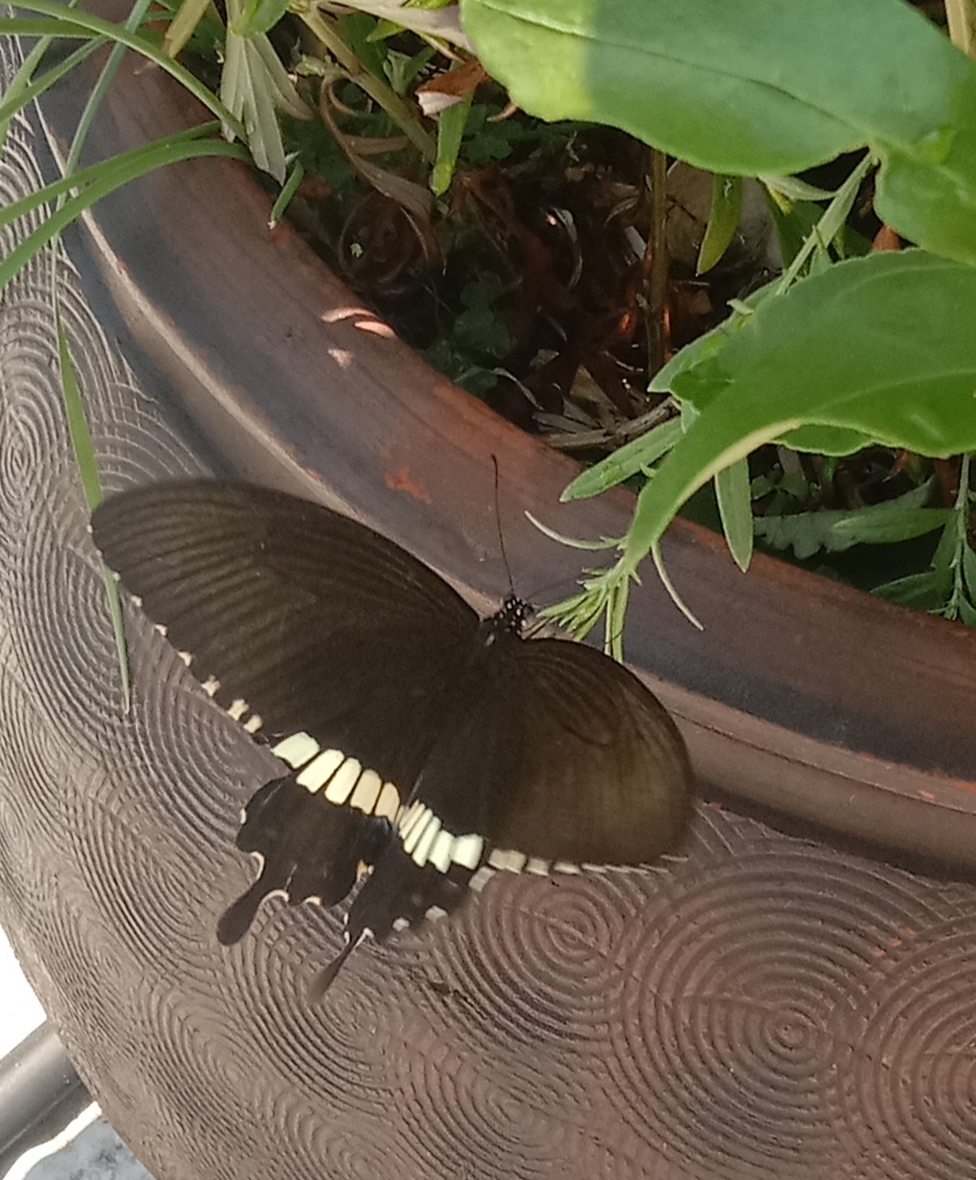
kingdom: Animalia
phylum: Arthropoda
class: Insecta
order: Lepidoptera
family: Papilionidae
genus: Papilio
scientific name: Papilio polytes
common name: Common mormon
